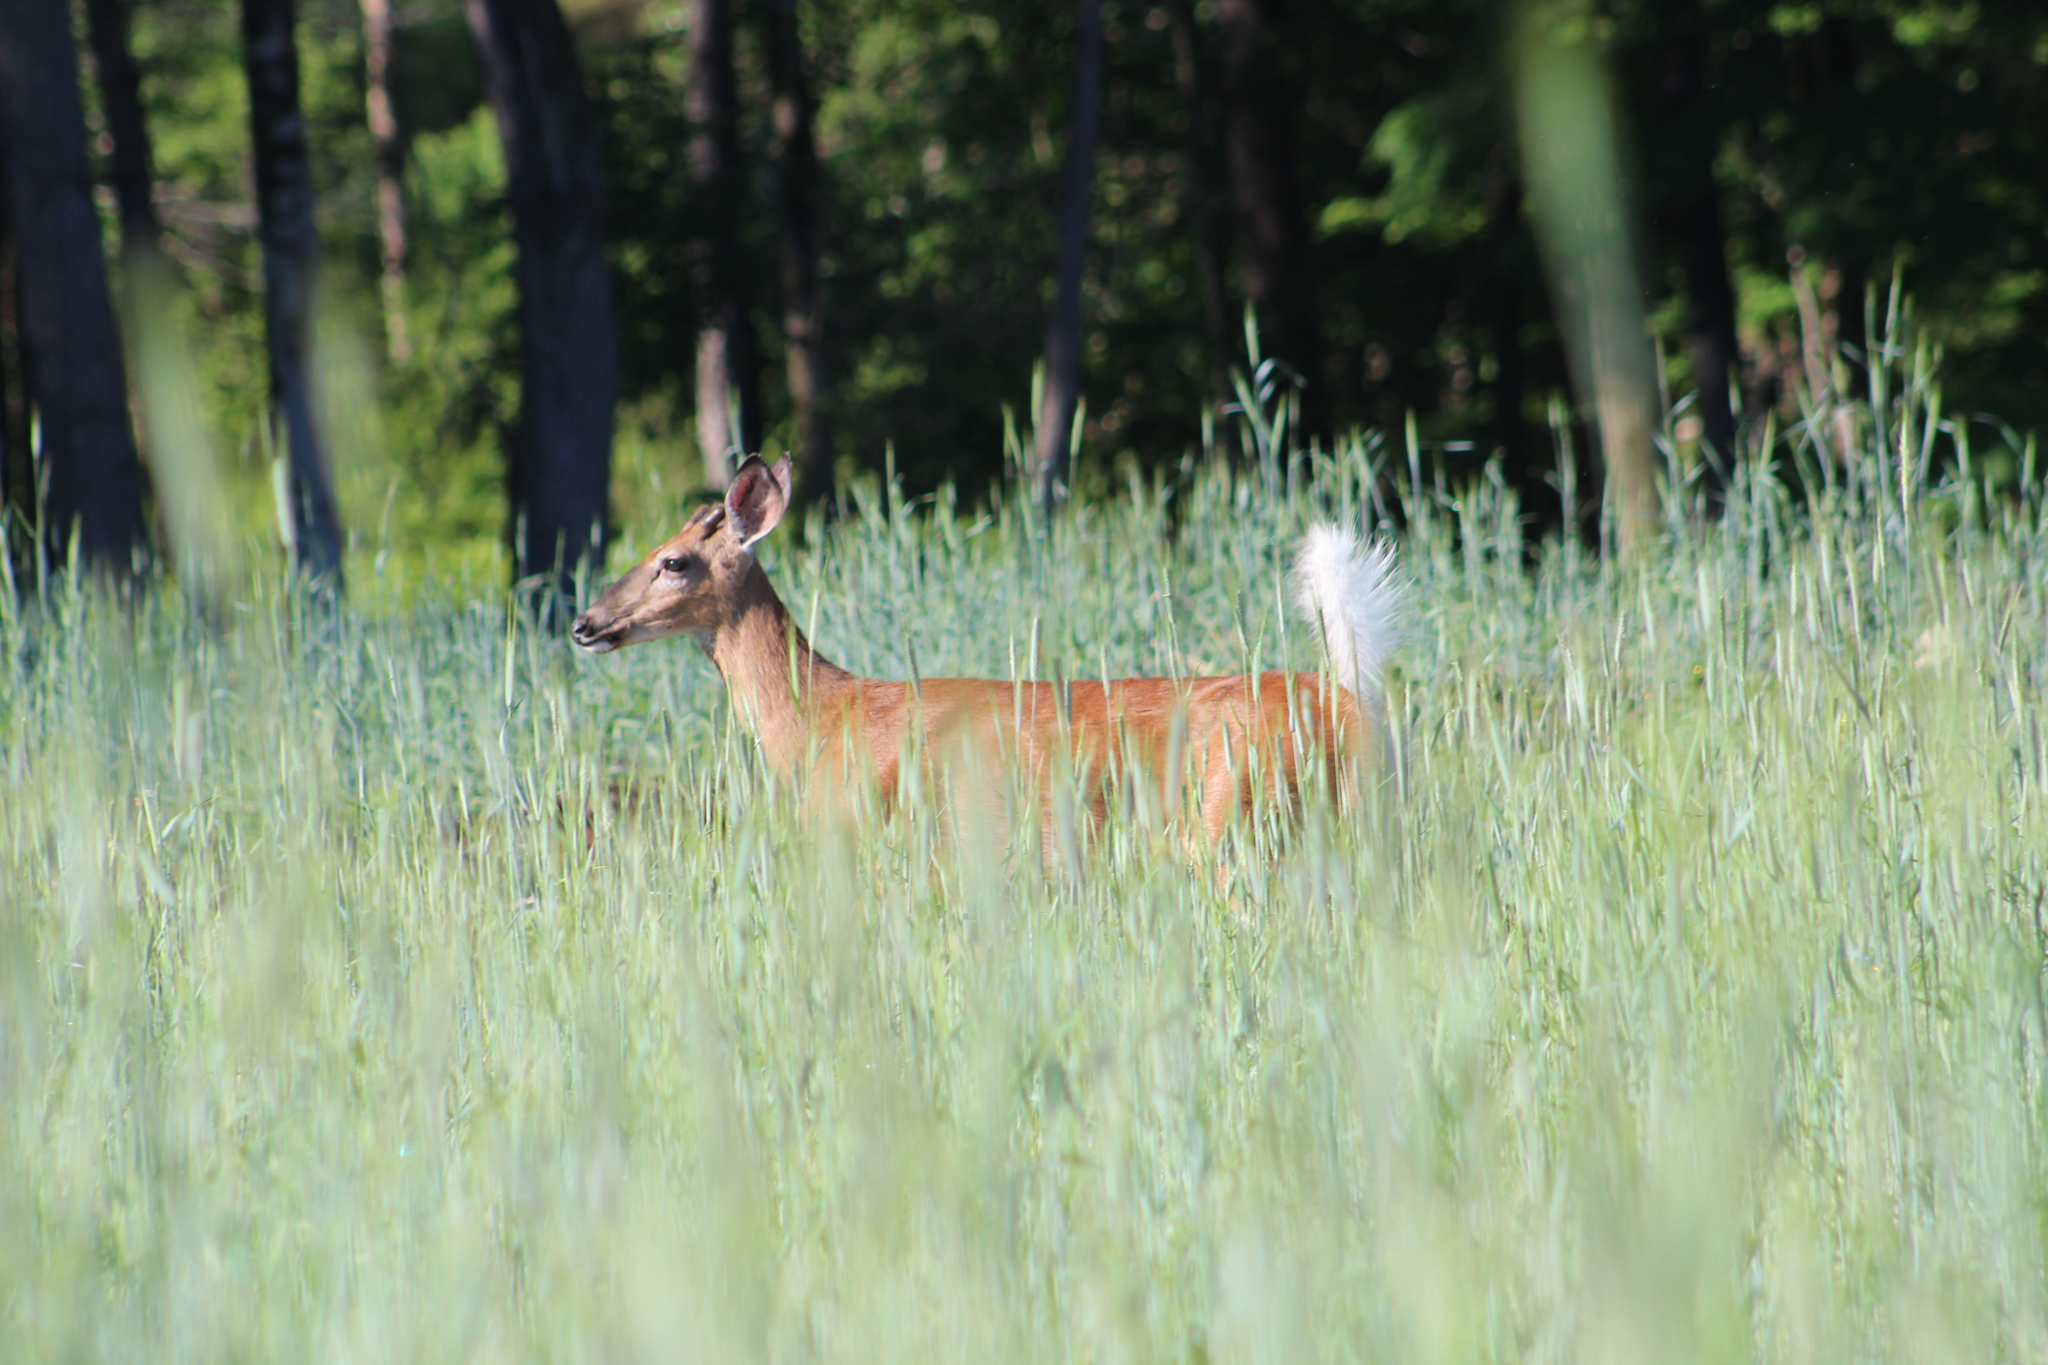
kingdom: Animalia
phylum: Chordata
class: Mammalia
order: Artiodactyla
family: Cervidae
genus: Odocoileus
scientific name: Odocoileus virginianus
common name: White-tailed deer
